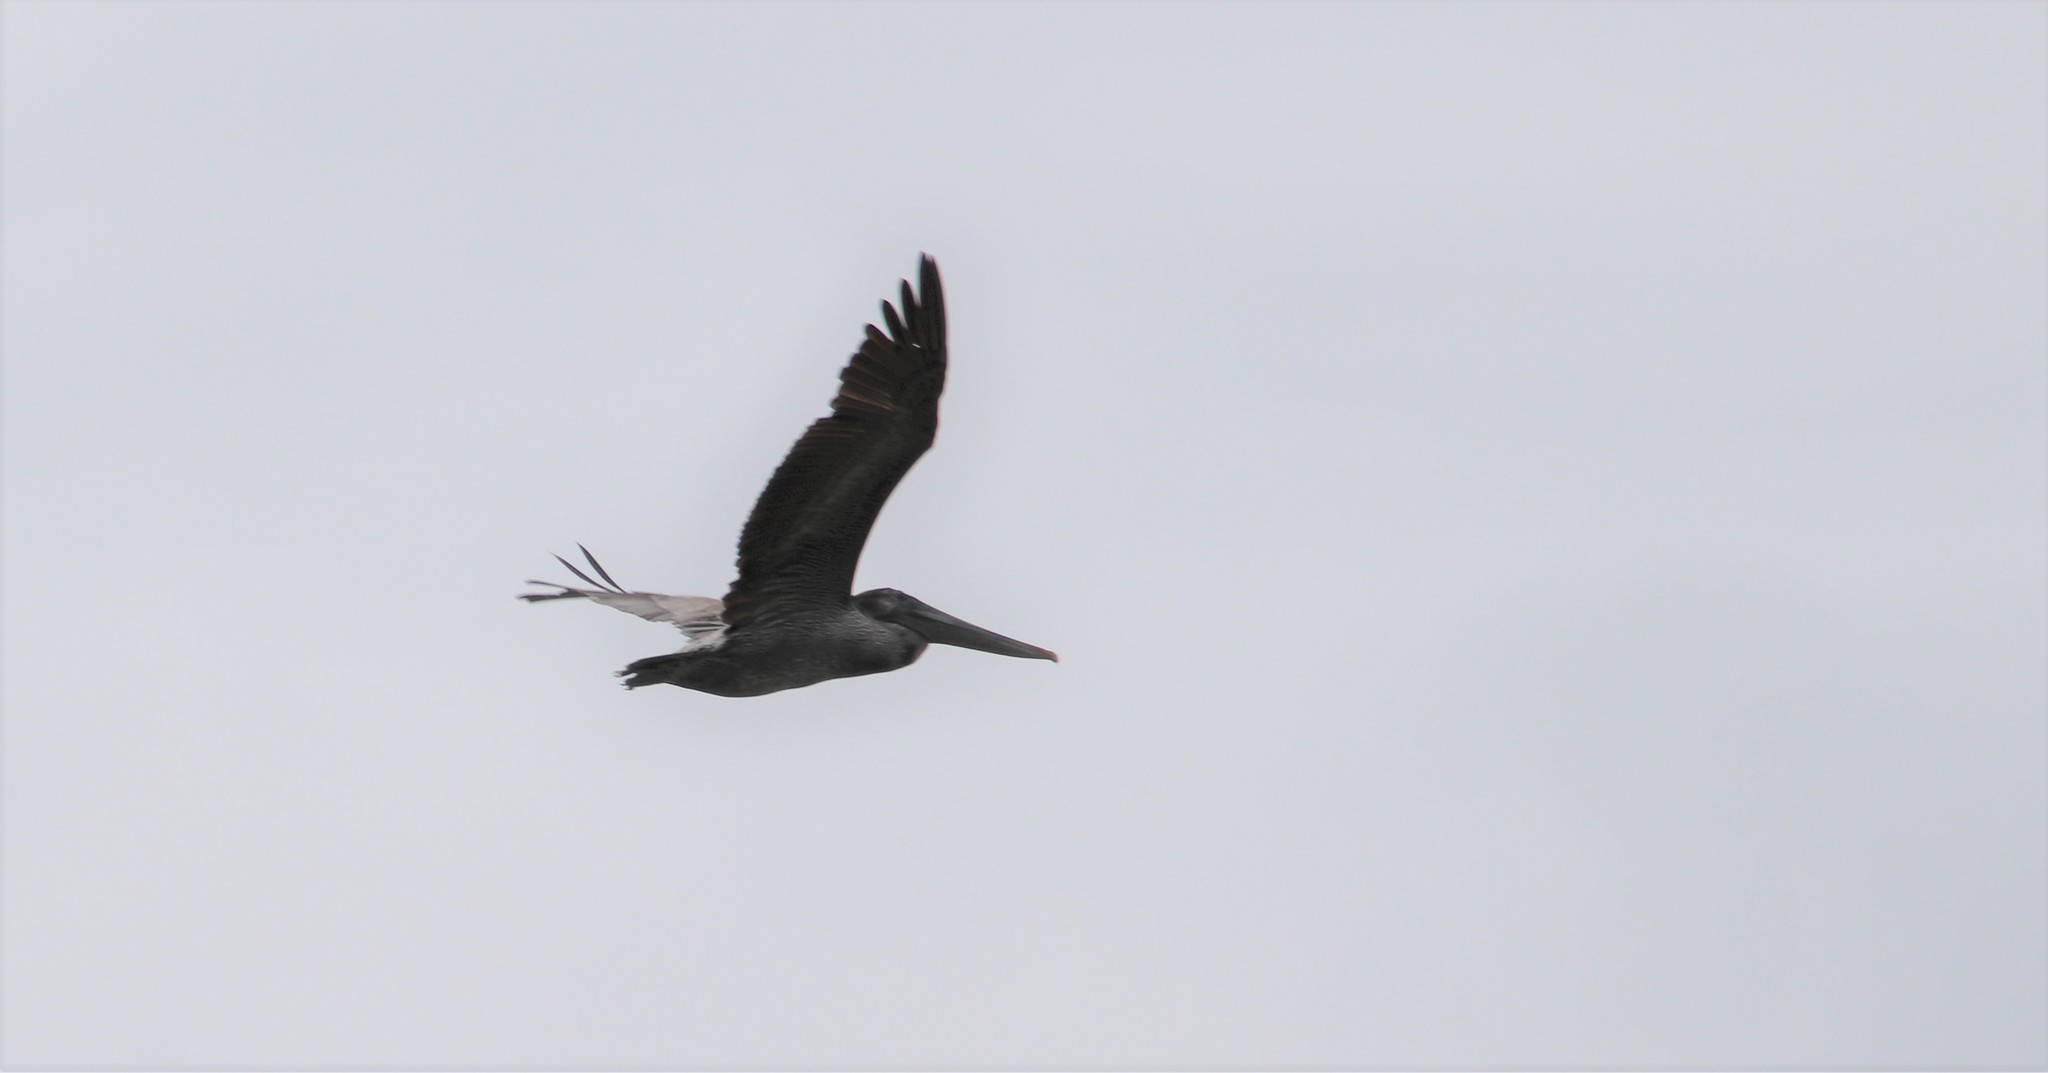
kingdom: Animalia
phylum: Chordata
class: Aves
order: Pelecaniformes
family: Pelecanidae
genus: Pelecanus
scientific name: Pelecanus occidentalis
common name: Brown pelican
